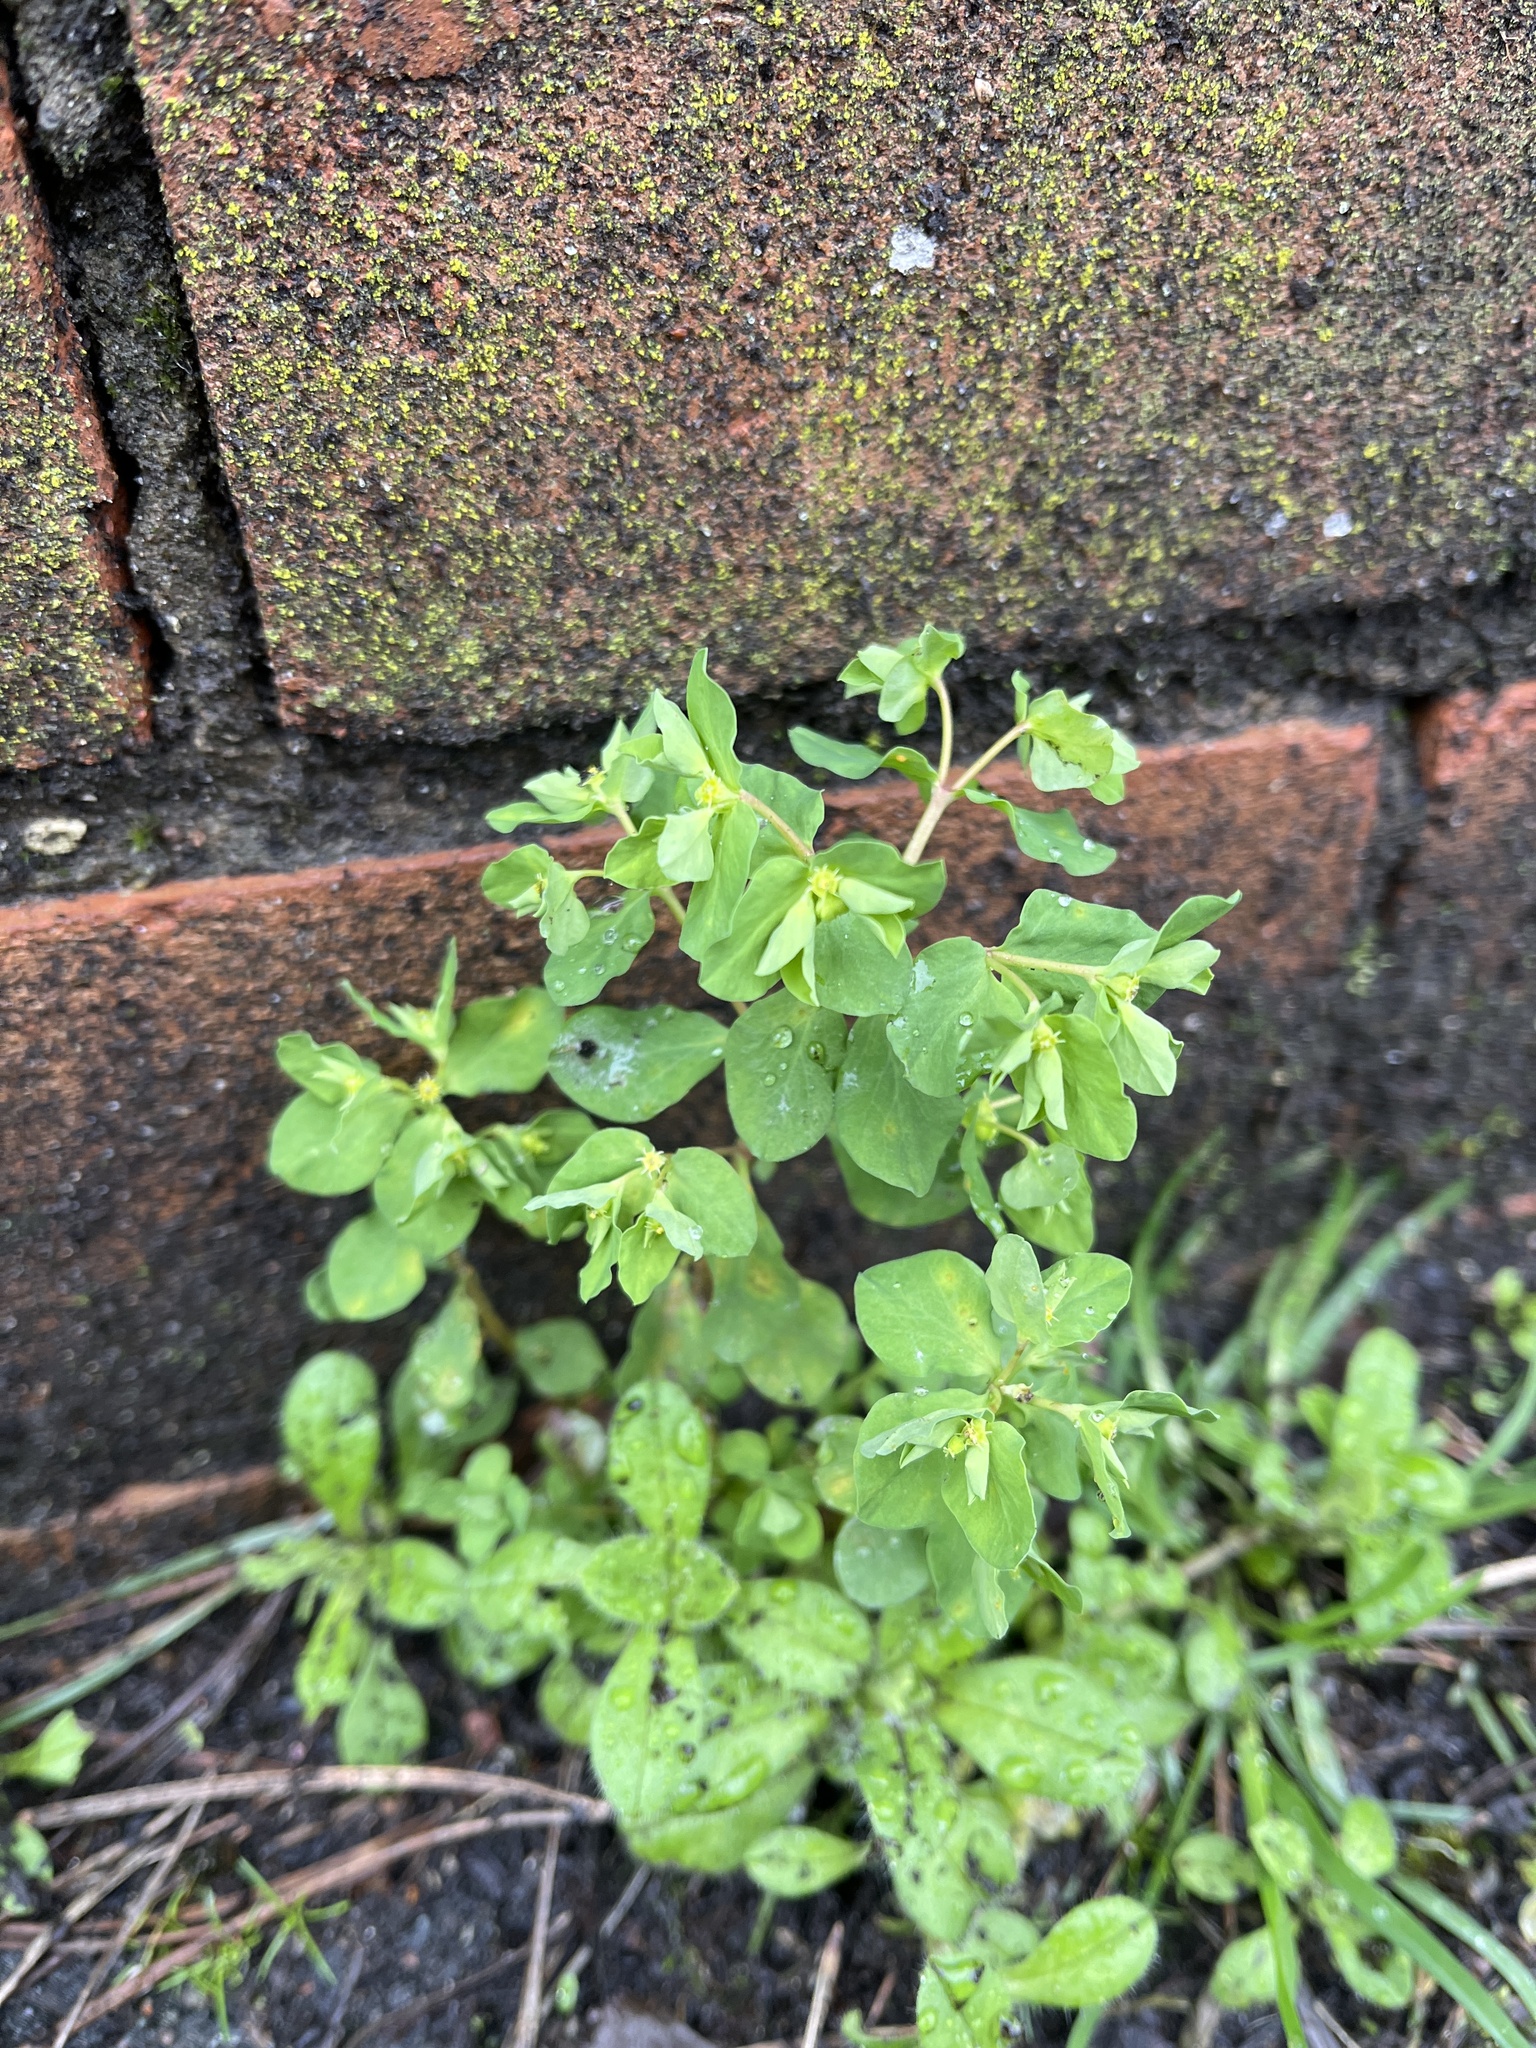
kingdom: Plantae
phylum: Tracheophyta
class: Magnoliopsida
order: Malpighiales
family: Euphorbiaceae
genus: Euphorbia
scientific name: Euphorbia peplus
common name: Petty spurge
